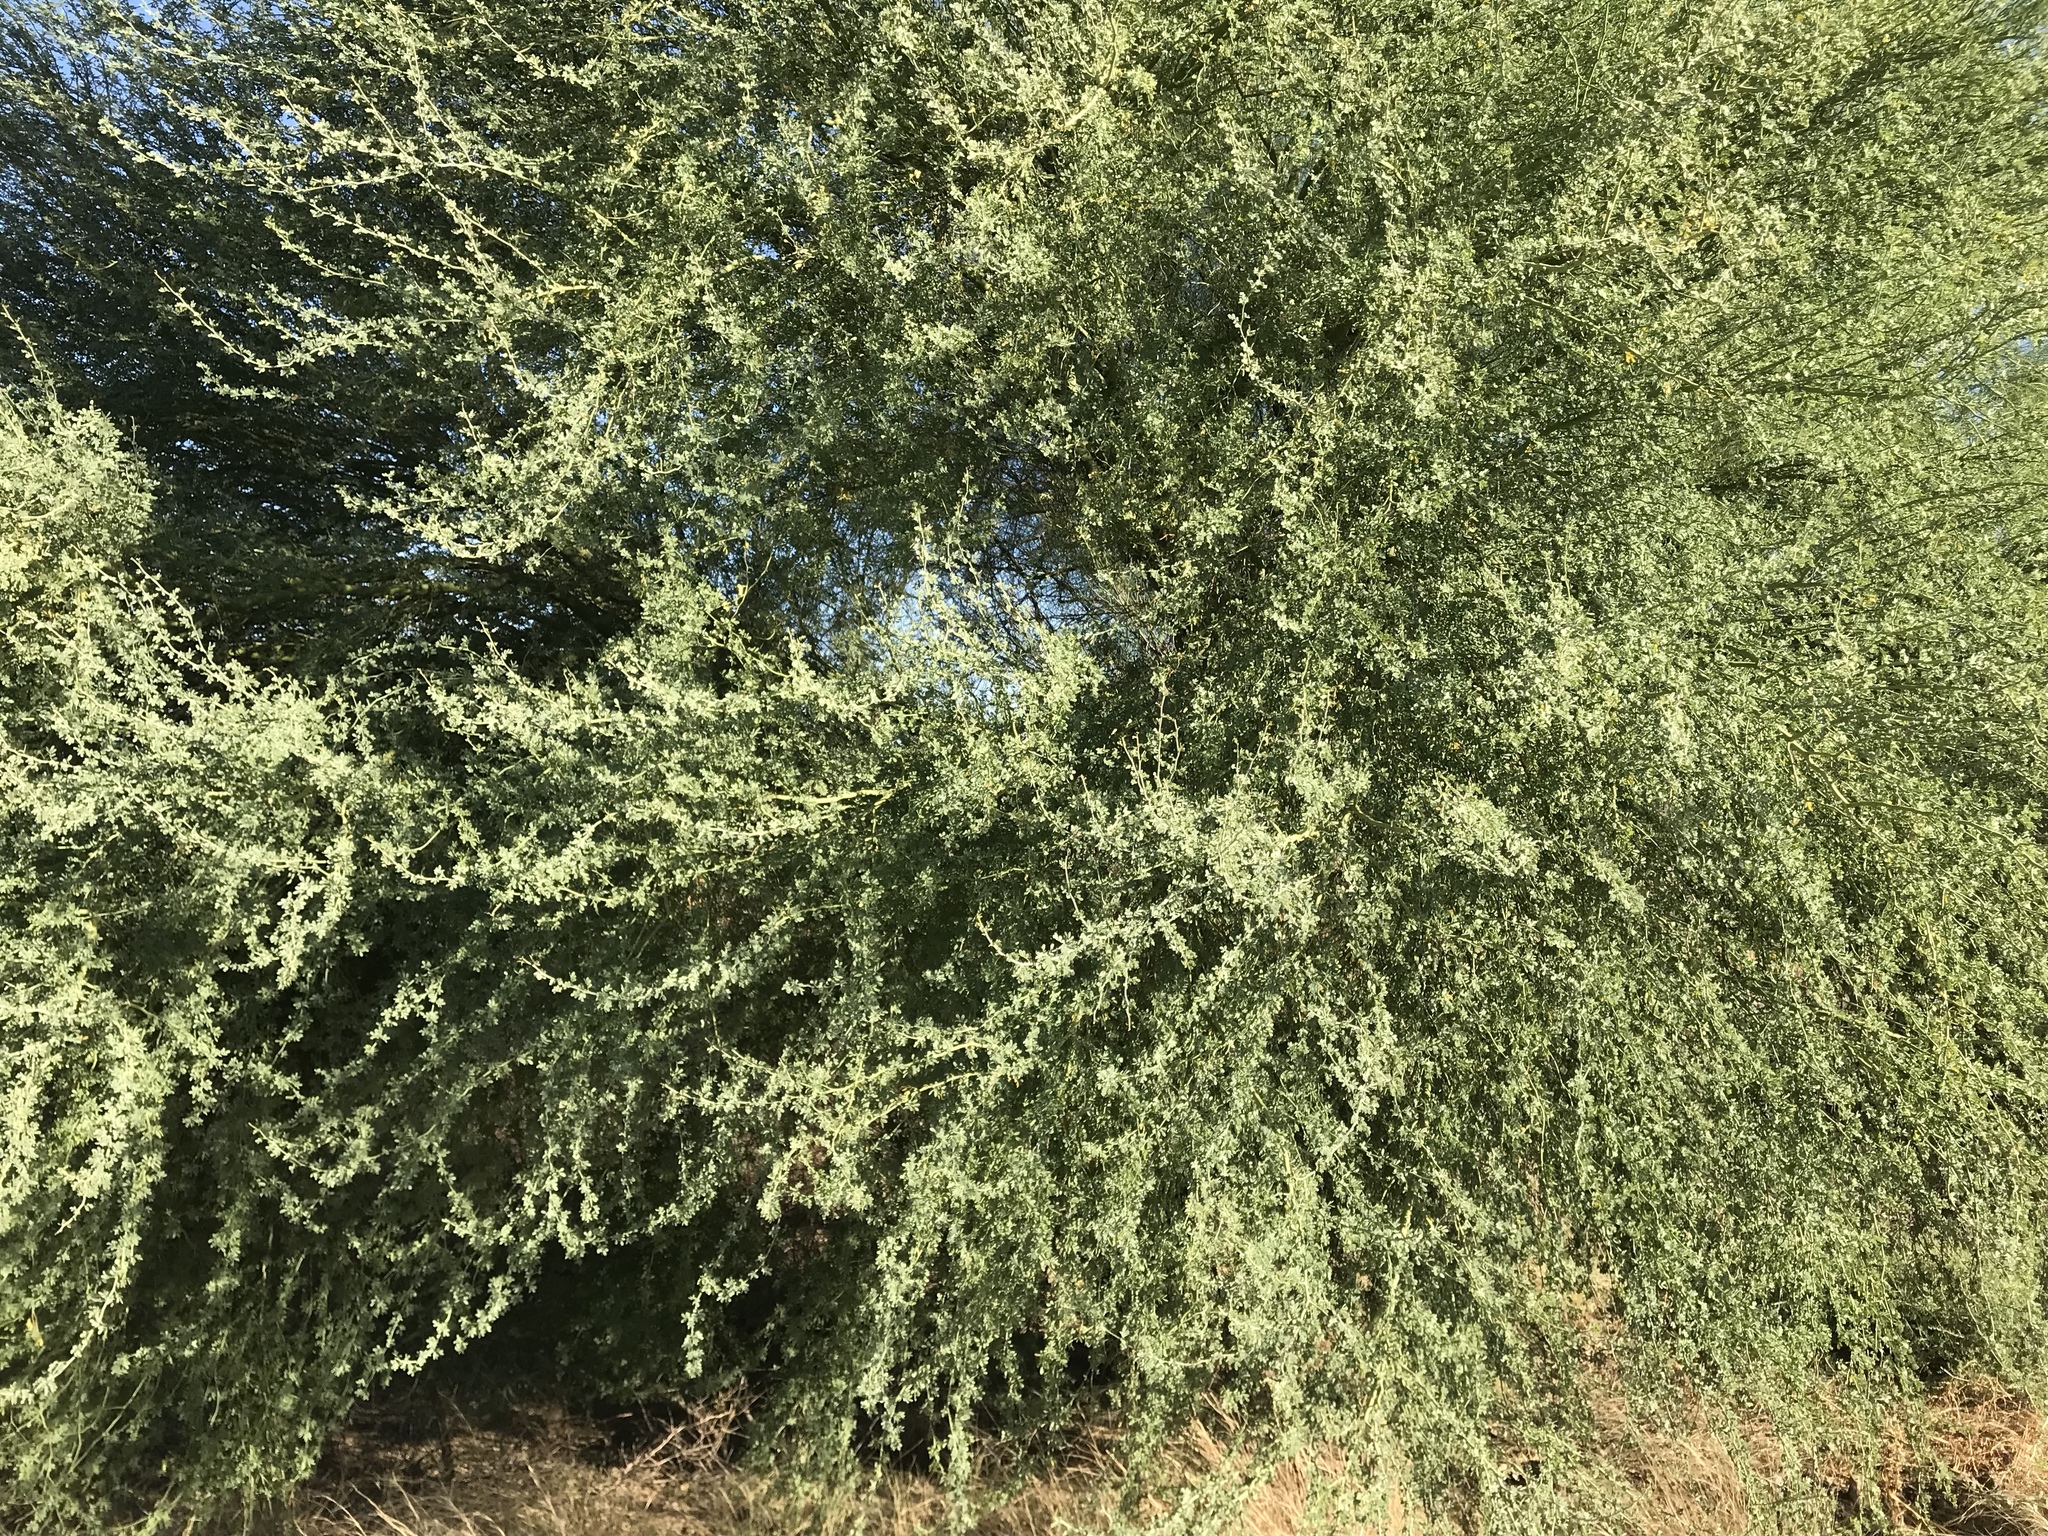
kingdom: Plantae
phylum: Tracheophyta
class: Magnoliopsida
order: Fabales
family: Fabaceae
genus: Parkinsonia
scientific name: Parkinsonia florida
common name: Blue paloverde
